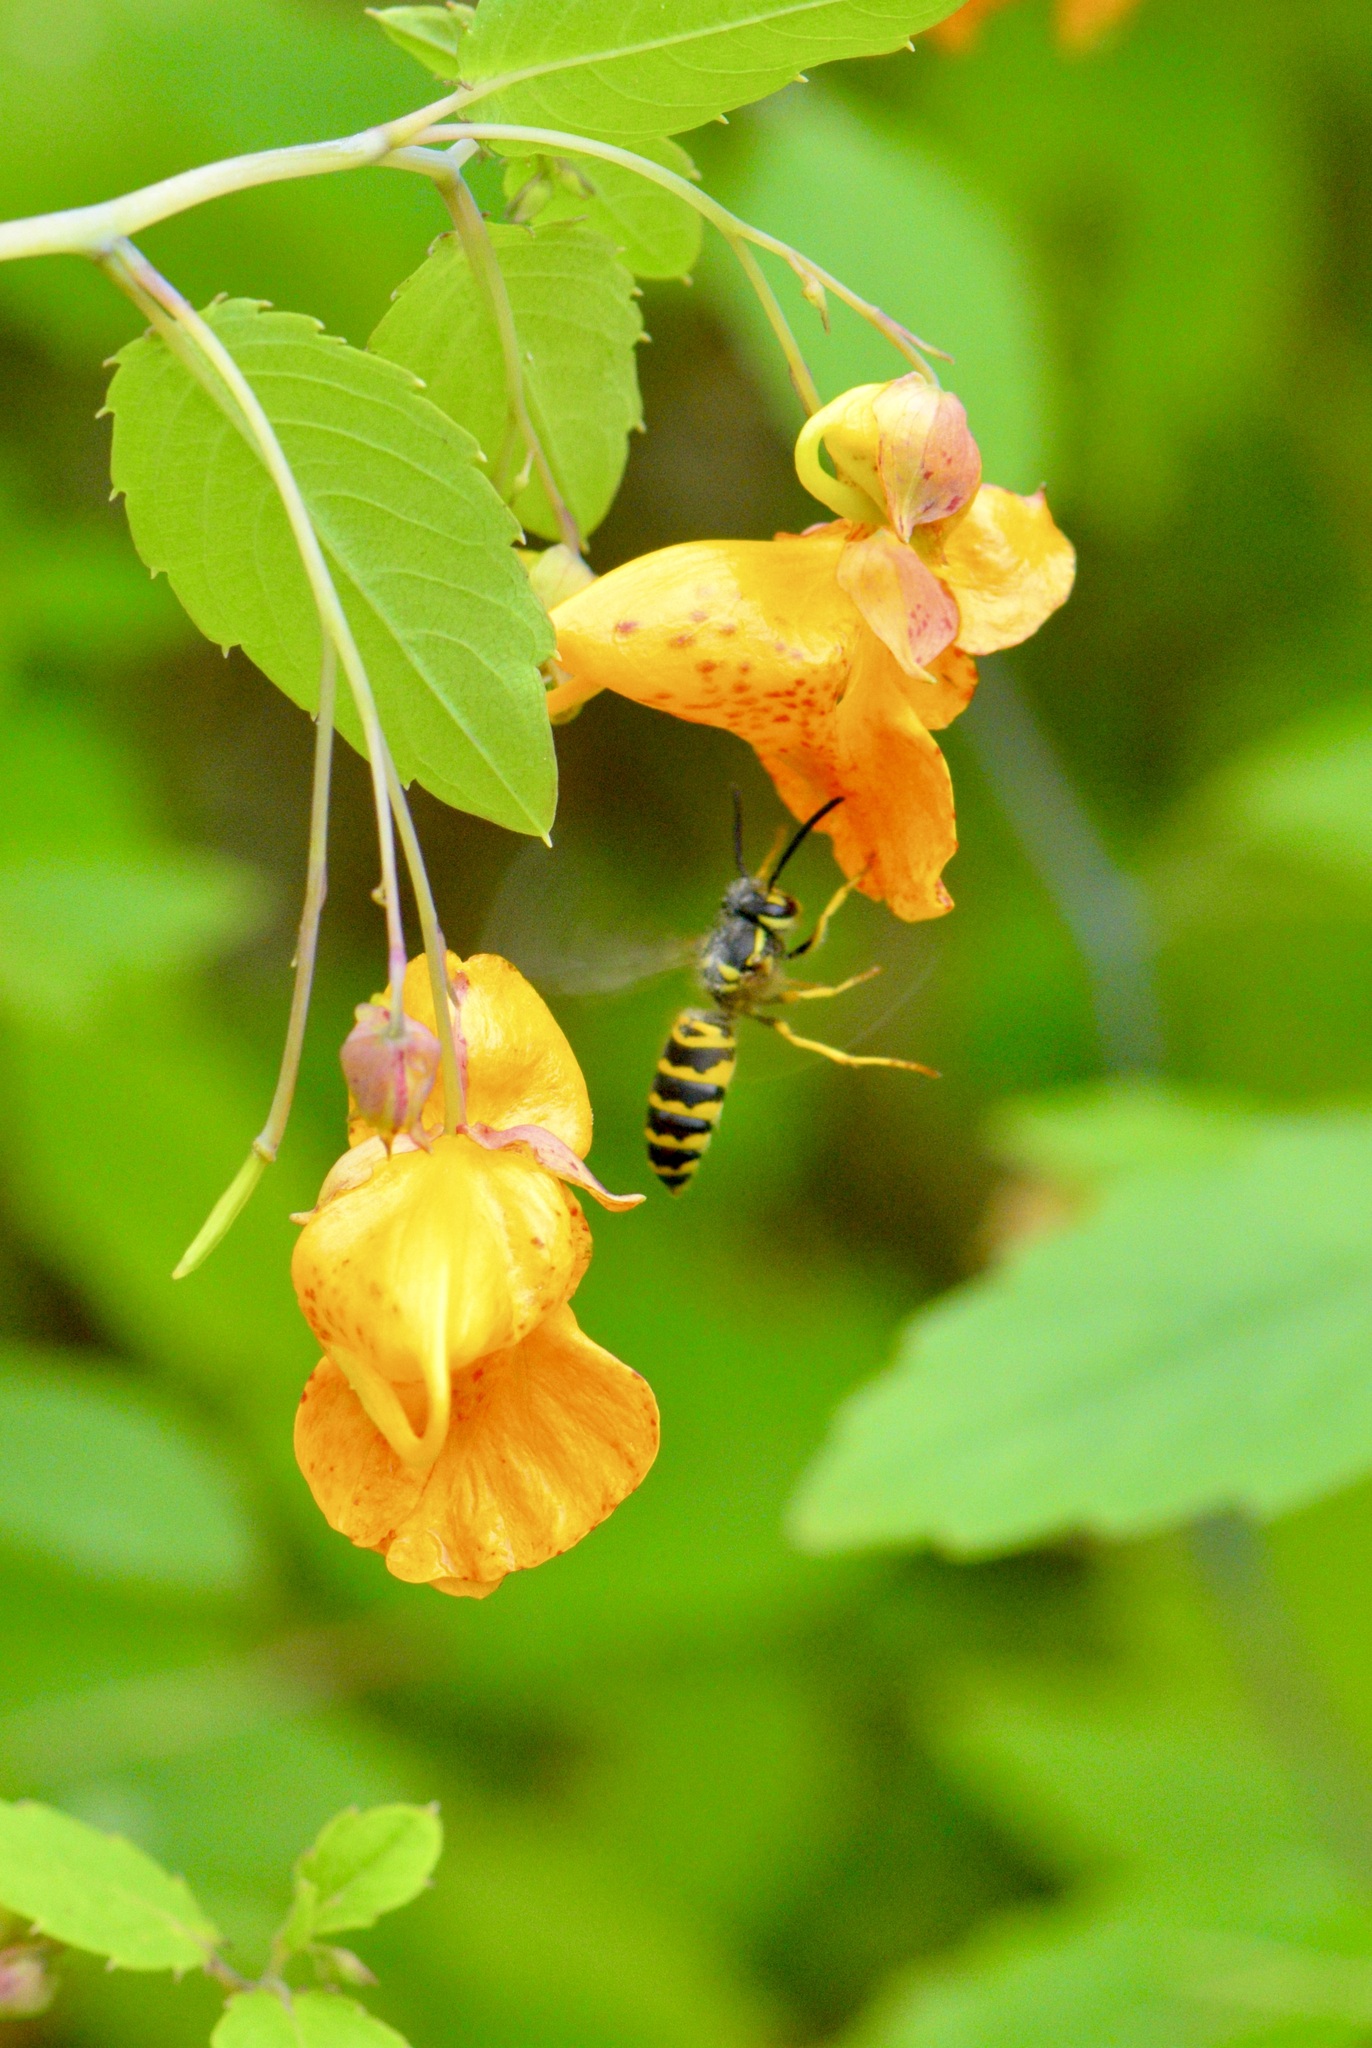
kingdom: Animalia
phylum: Arthropoda
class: Insecta
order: Hymenoptera
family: Vespidae
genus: Vespula
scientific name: Vespula maculifrons
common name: Eastern yellowjacket
